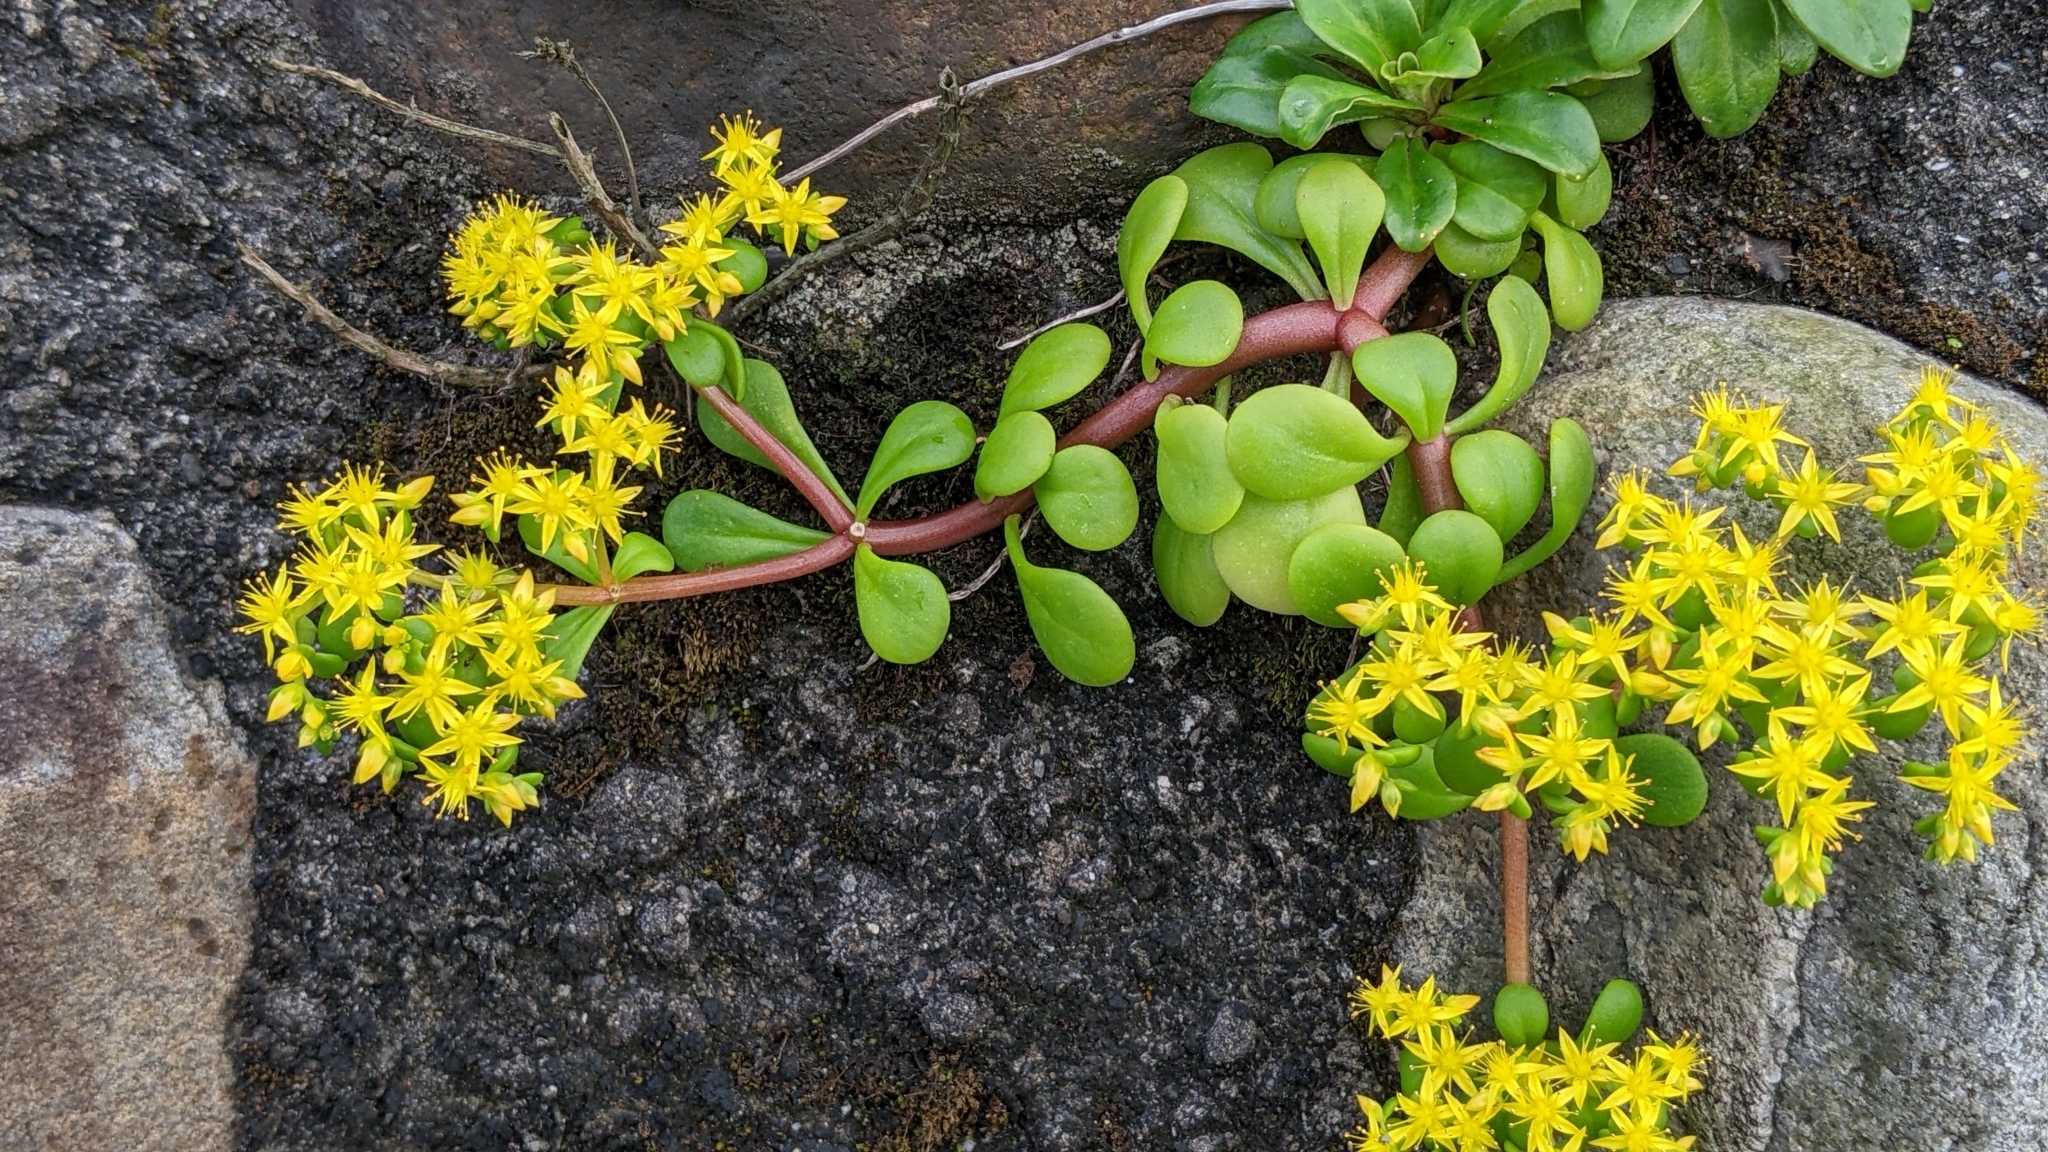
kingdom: Plantae
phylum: Tracheophyta
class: Magnoliopsida
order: Saxifragales
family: Crassulaceae
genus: Sedum
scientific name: Sedum formosanum
